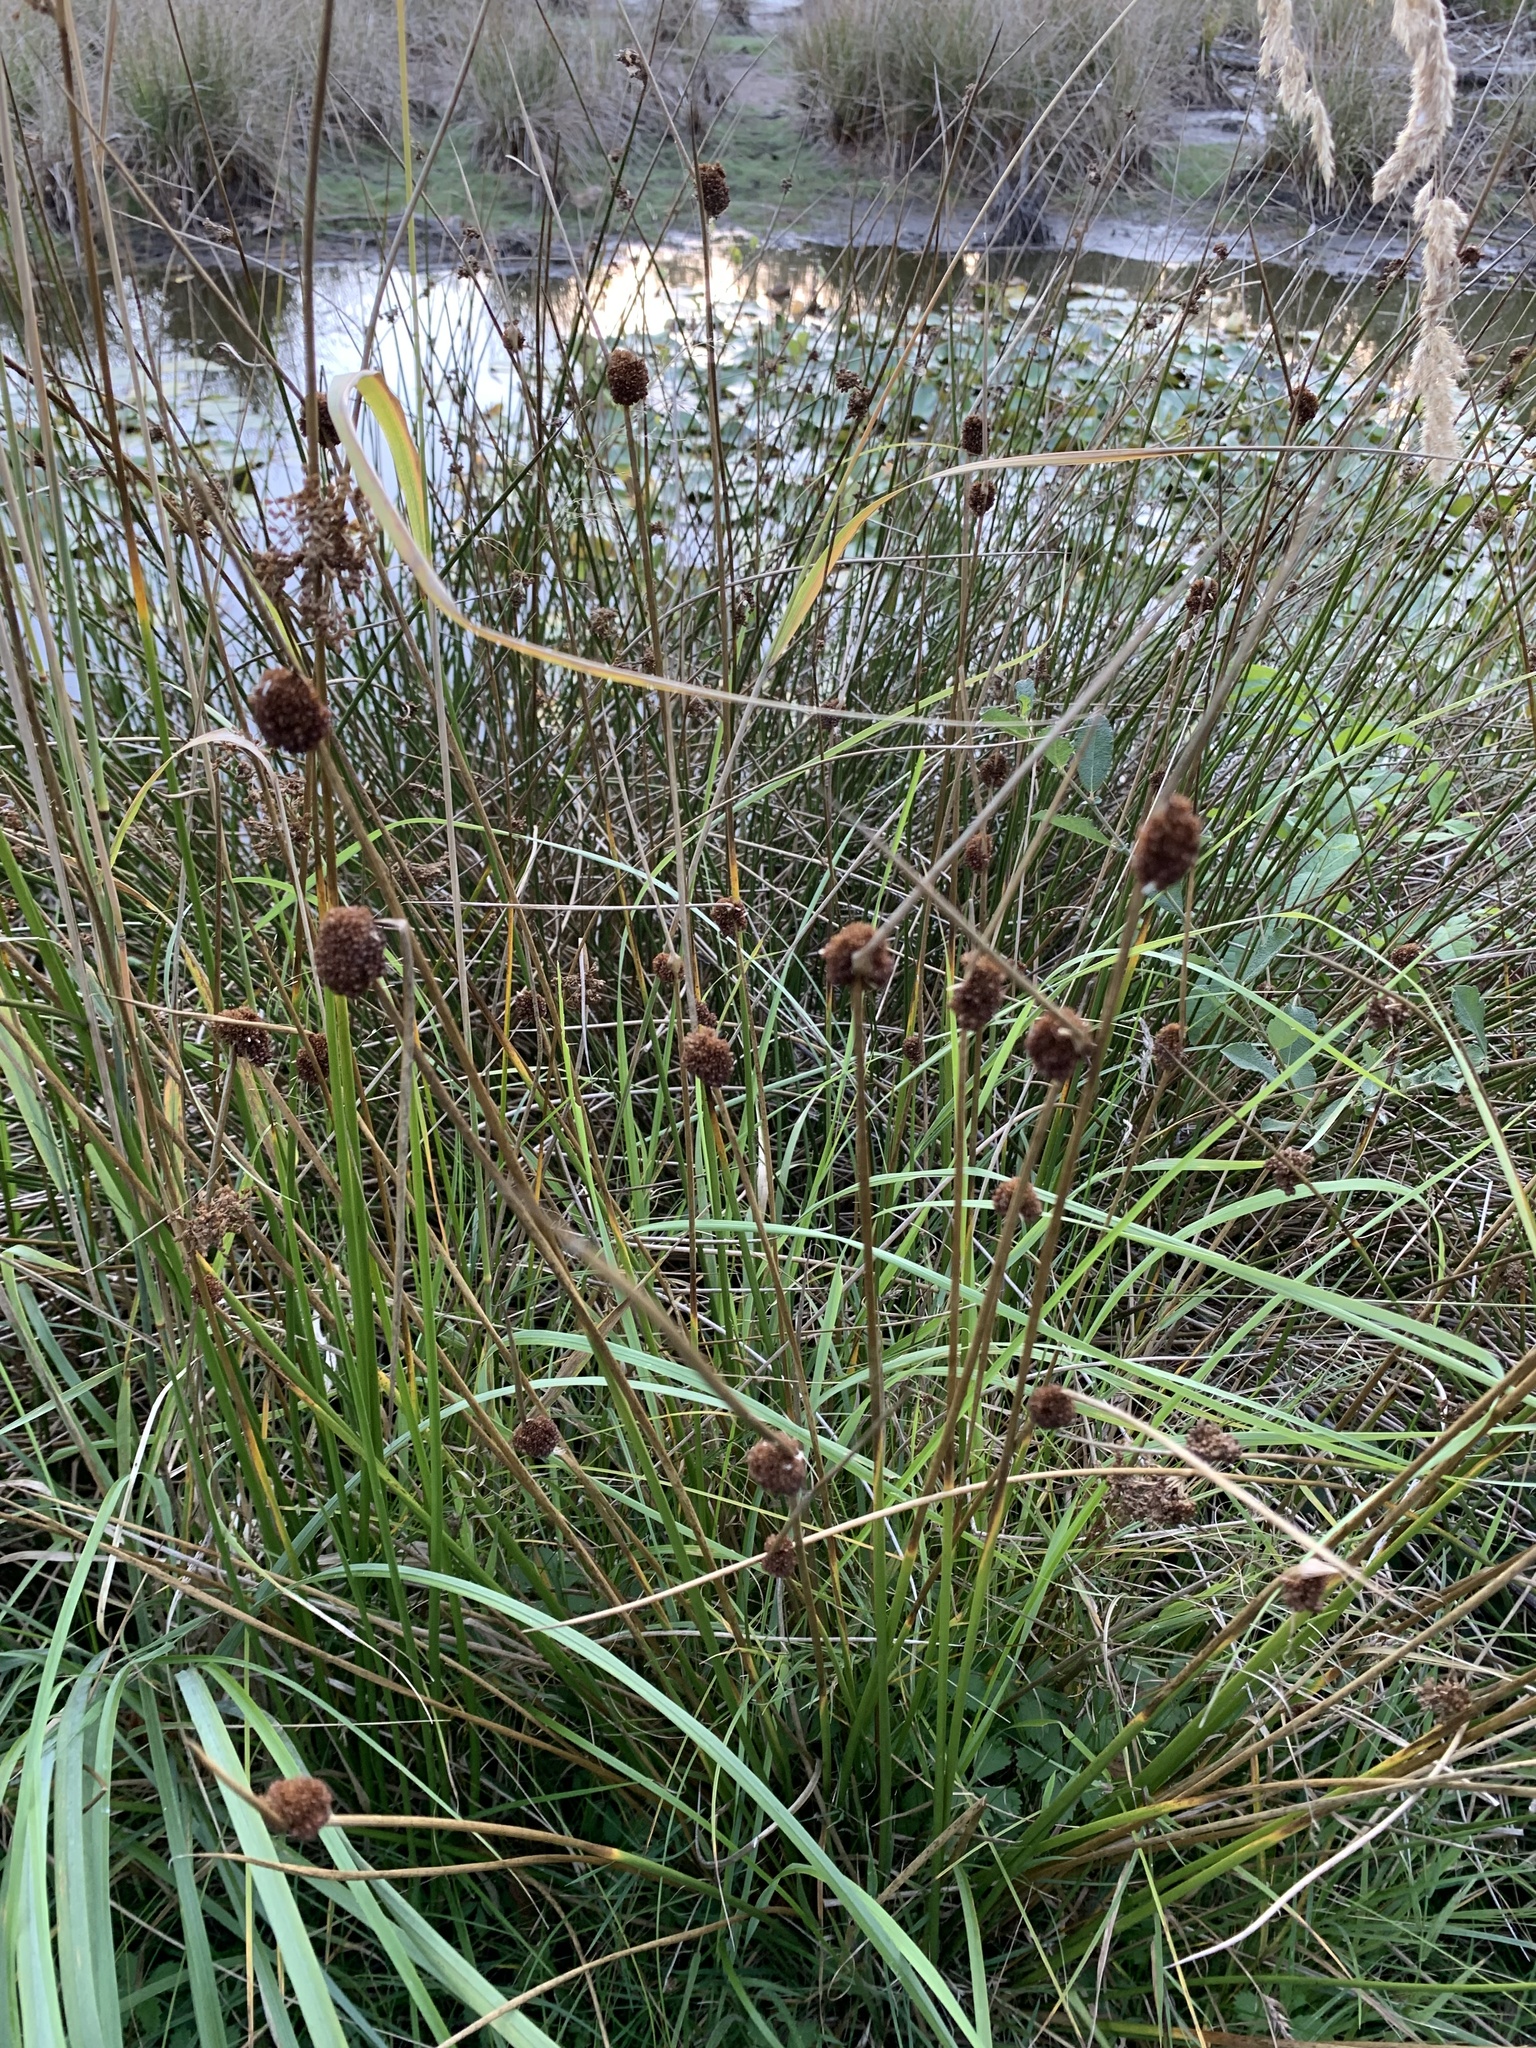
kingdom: Plantae
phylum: Tracheophyta
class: Liliopsida
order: Poales
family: Juncaceae
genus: Juncus
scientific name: Juncus conglomeratus
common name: Compact rush
